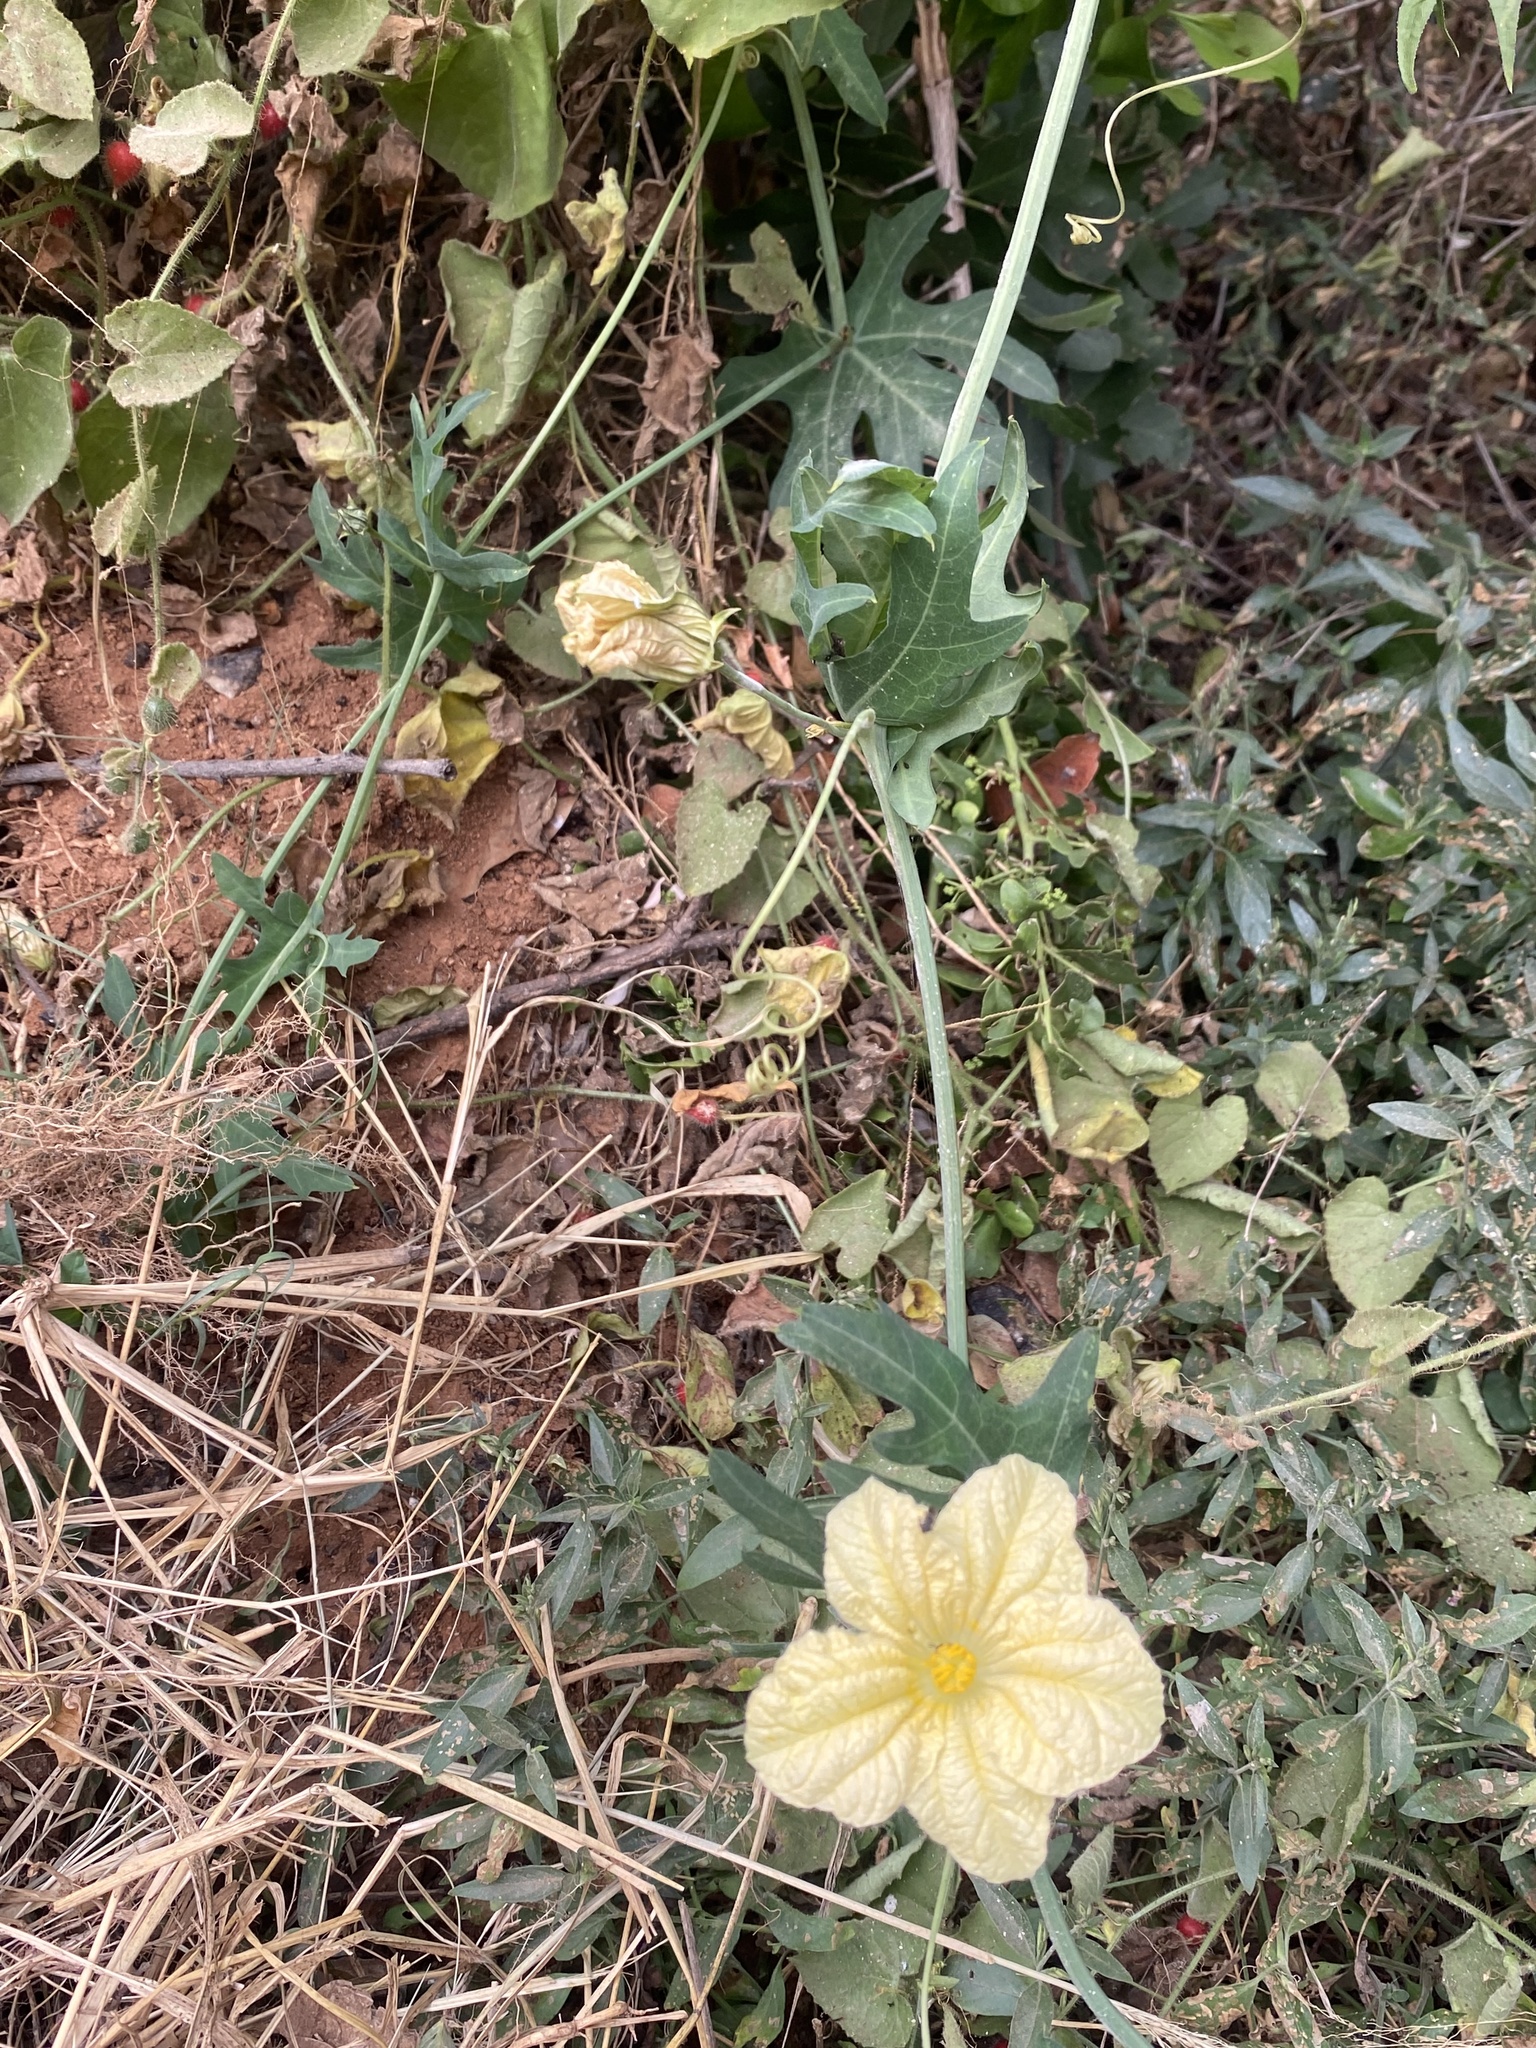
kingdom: Plantae
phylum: Tracheophyta
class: Magnoliopsida
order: Cucurbitales
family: Cucurbitaceae
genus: Coccinia
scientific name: Coccinia sessilifolia
